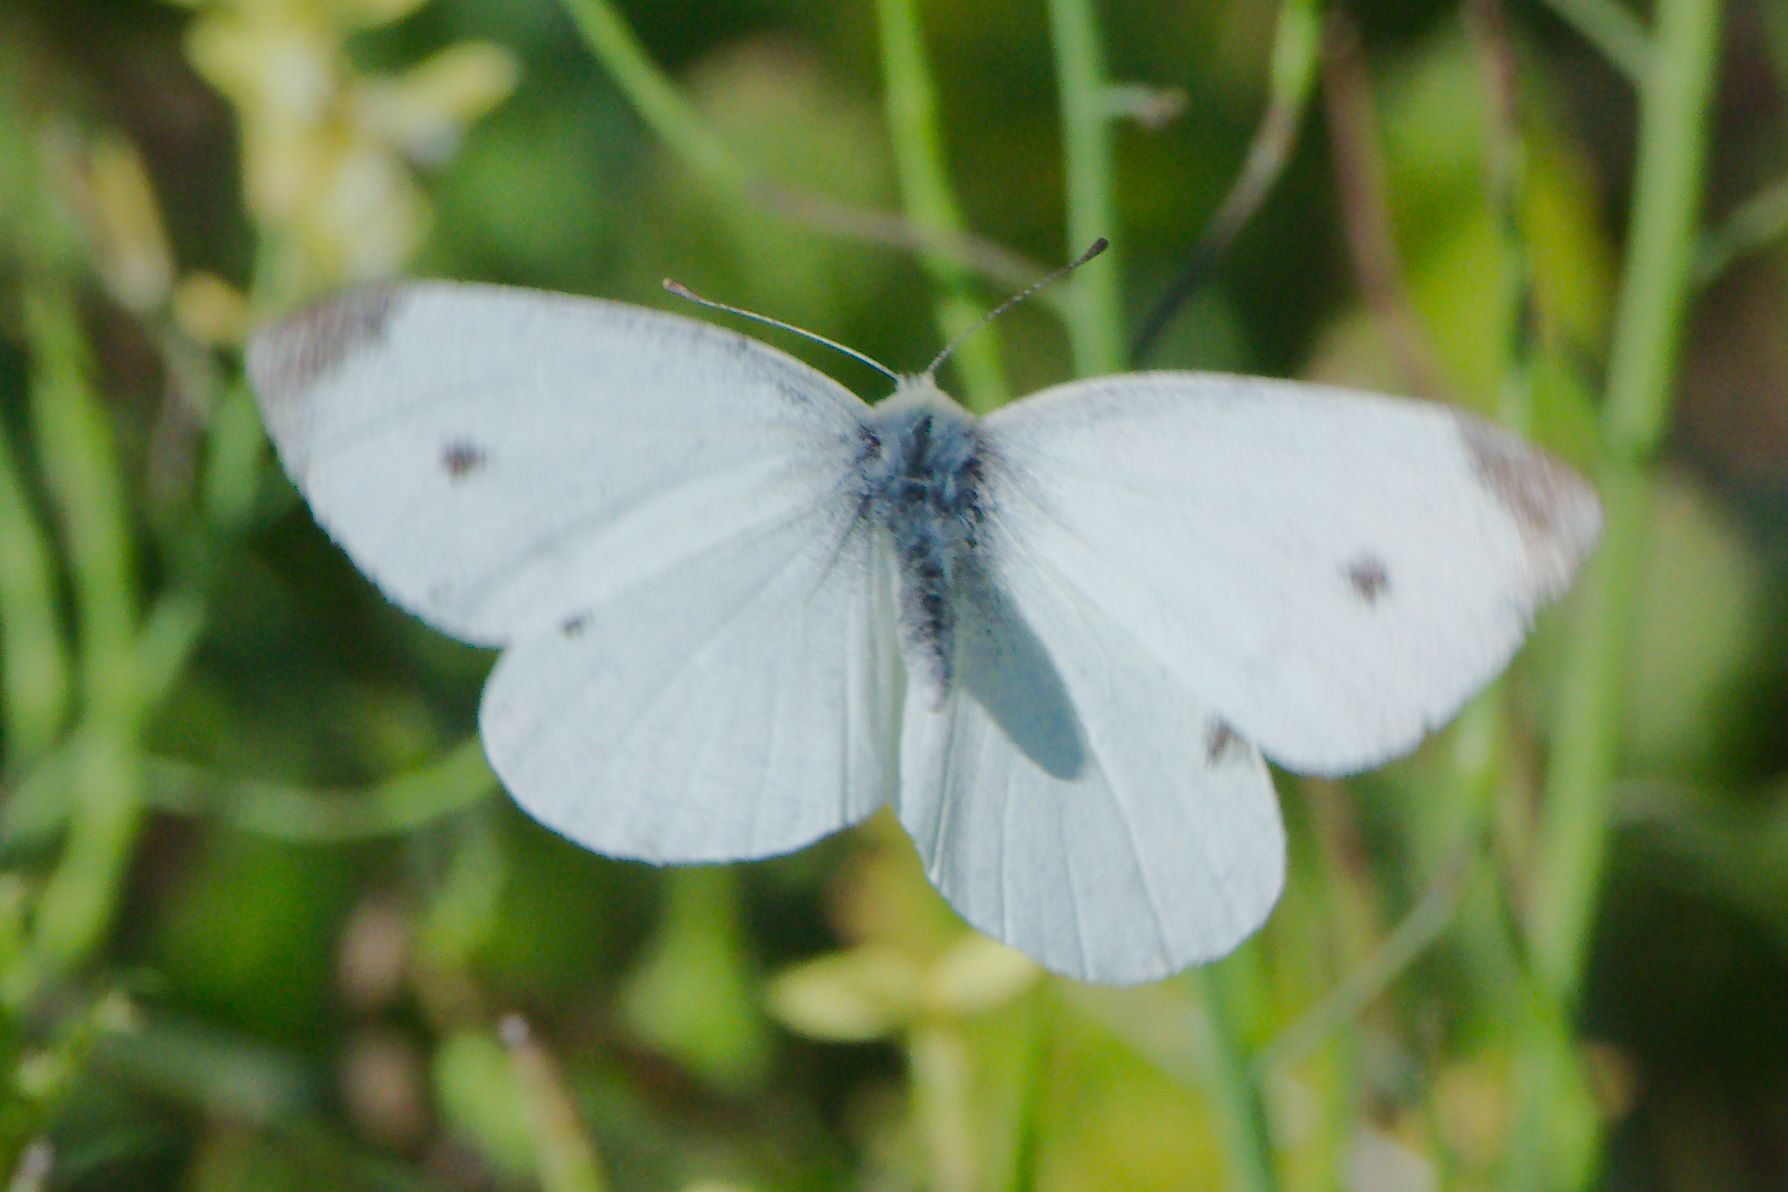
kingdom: Animalia
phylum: Arthropoda
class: Insecta
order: Lepidoptera
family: Pieridae
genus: Pieris
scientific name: Pieris rapae
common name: Small white
